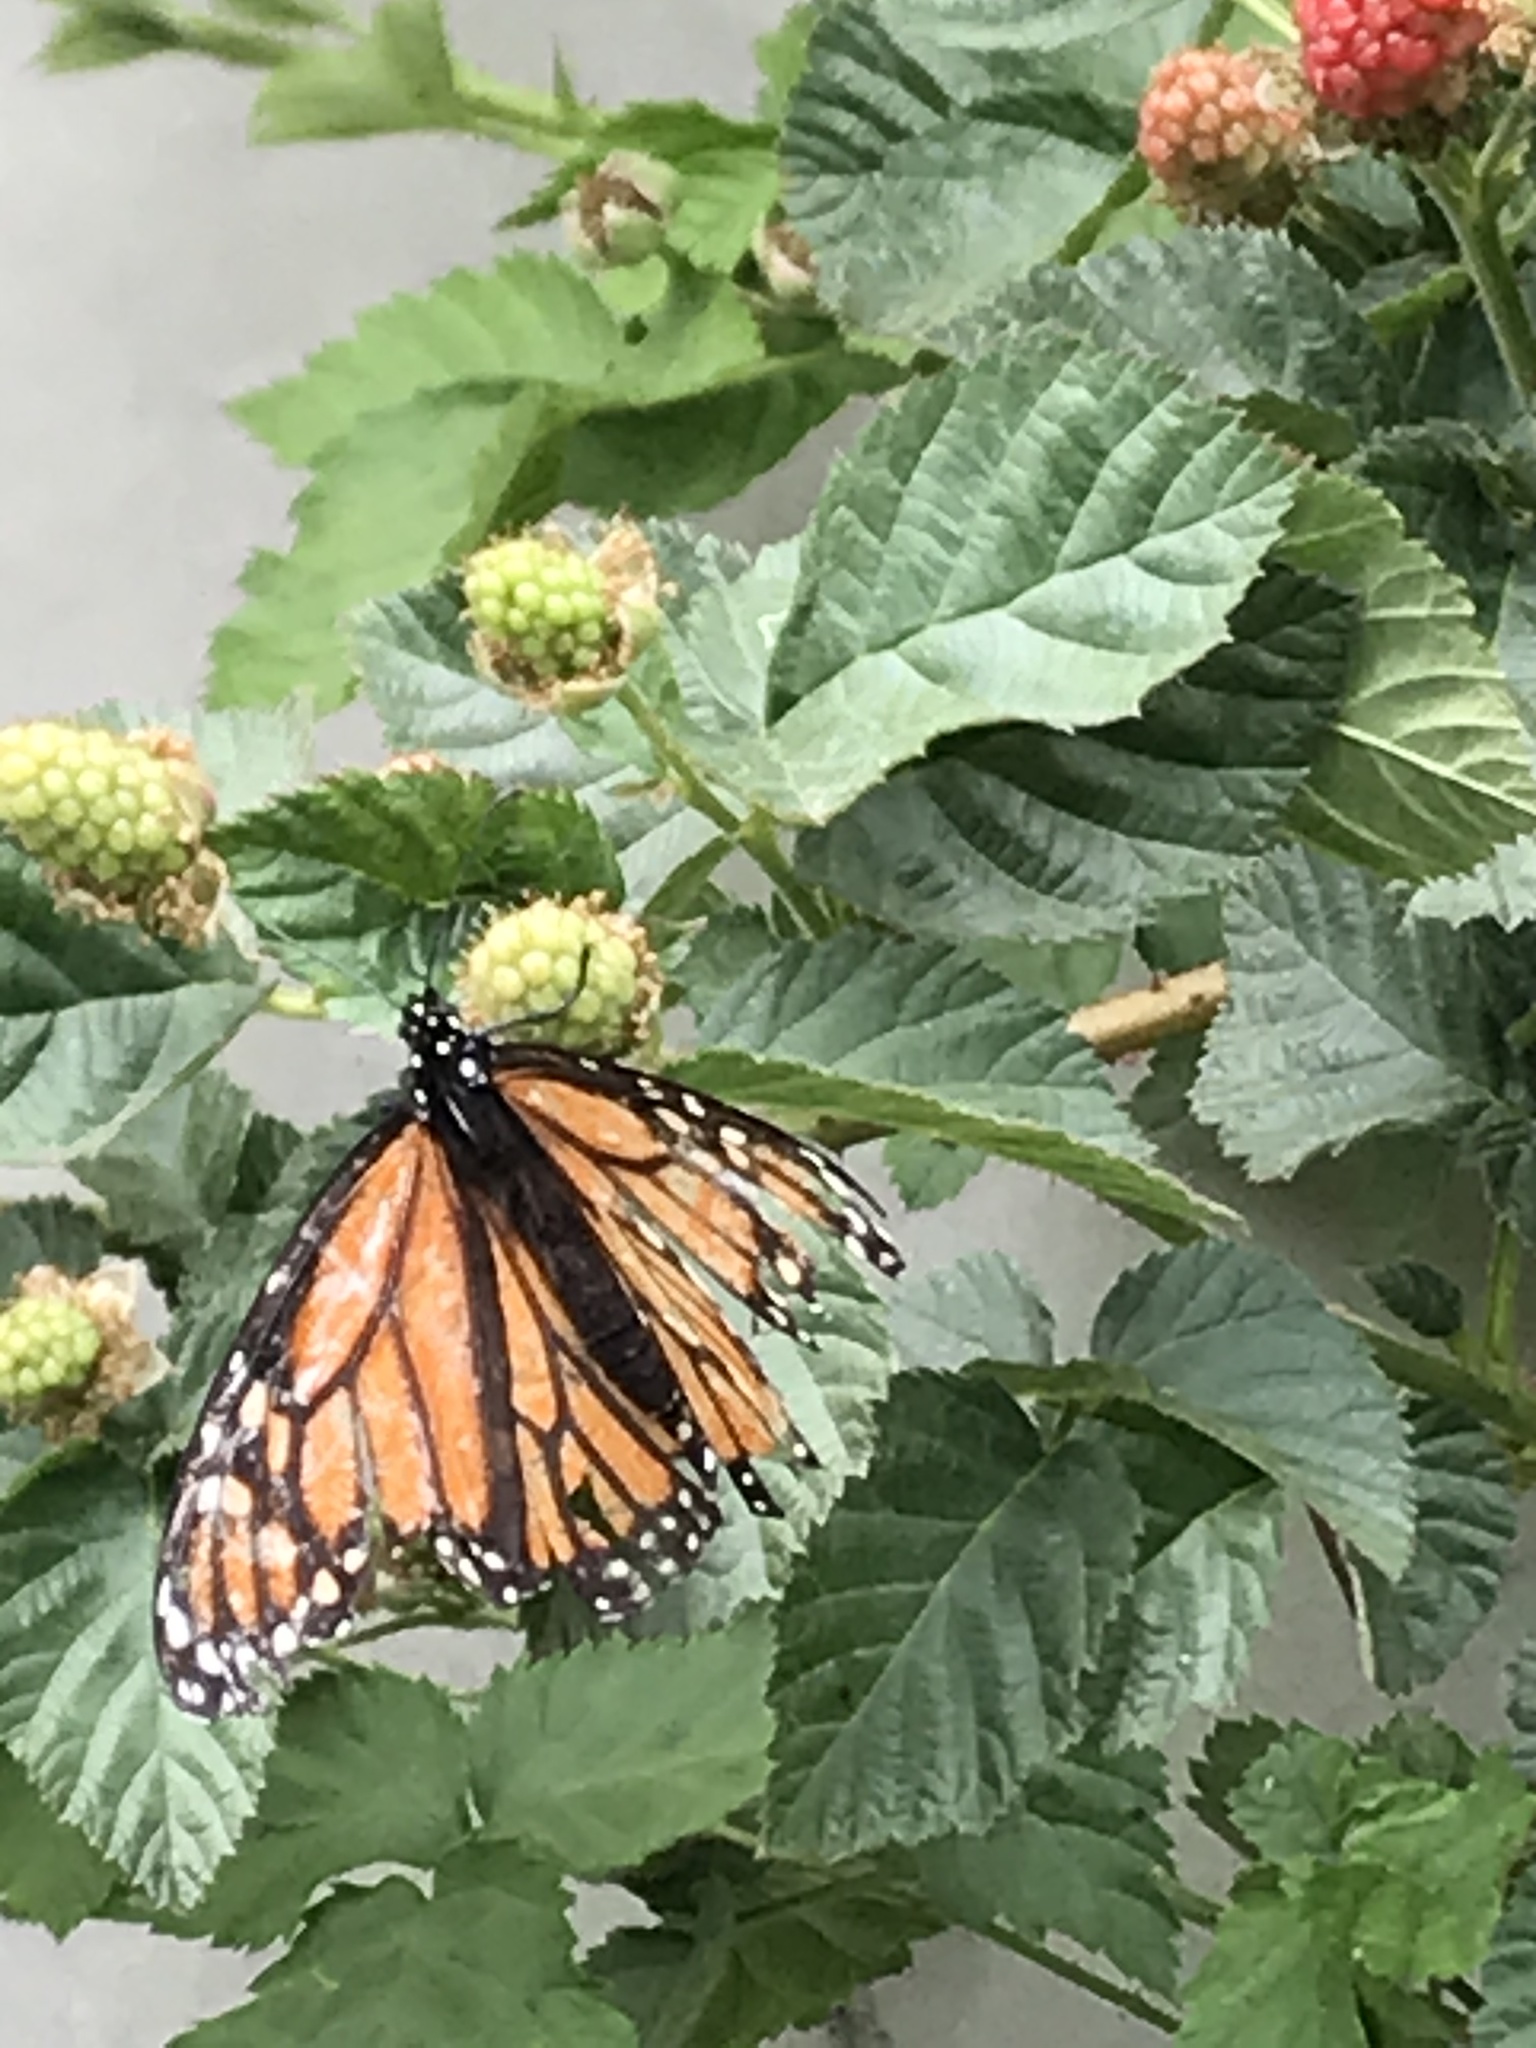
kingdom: Animalia
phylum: Arthropoda
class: Insecta
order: Lepidoptera
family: Nymphalidae
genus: Danaus
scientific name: Danaus plexippus
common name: Monarch
